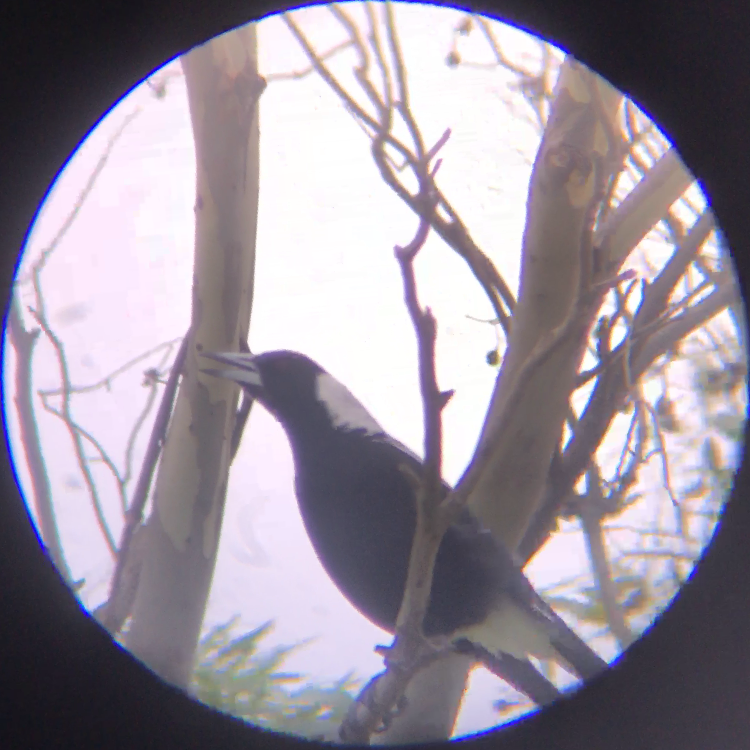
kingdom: Animalia
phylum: Chordata
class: Aves
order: Passeriformes
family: Cracticidae
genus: Gymnorhina
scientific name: Gymnorhina tibicen
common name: Australian magpie
